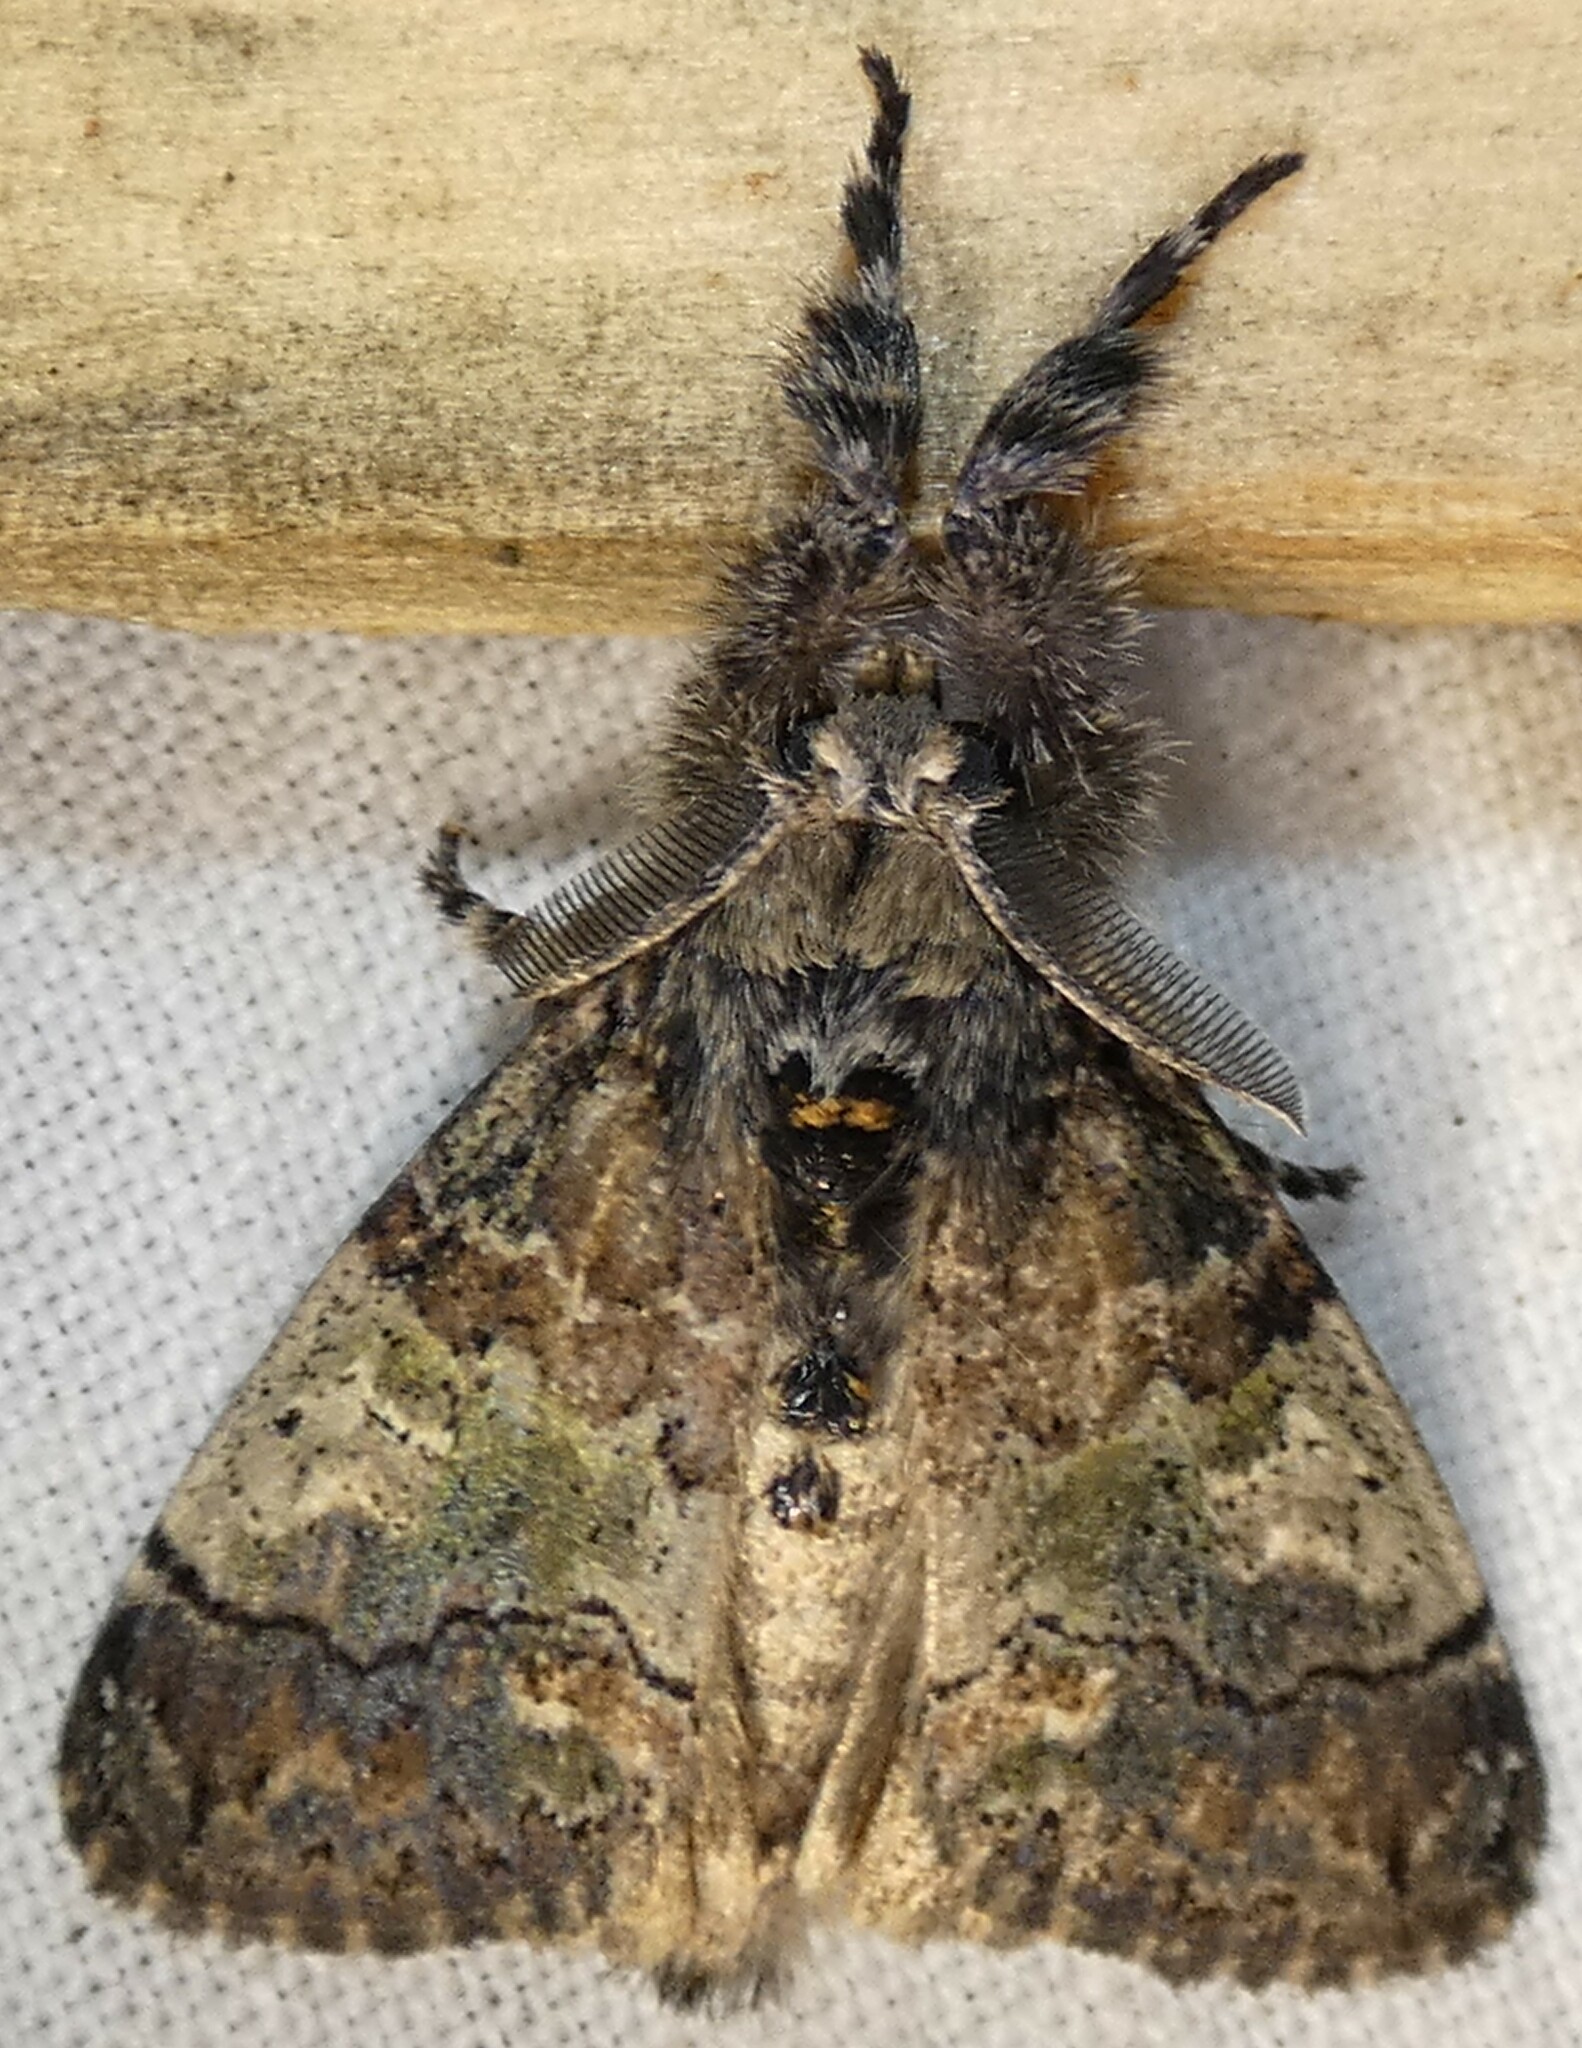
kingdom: Animalia
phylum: Arthropoda
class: Insecta
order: Lepidoptera
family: Erebidae
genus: Dasychira
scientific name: Dasychira meridionalis
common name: Southern tussock moth
